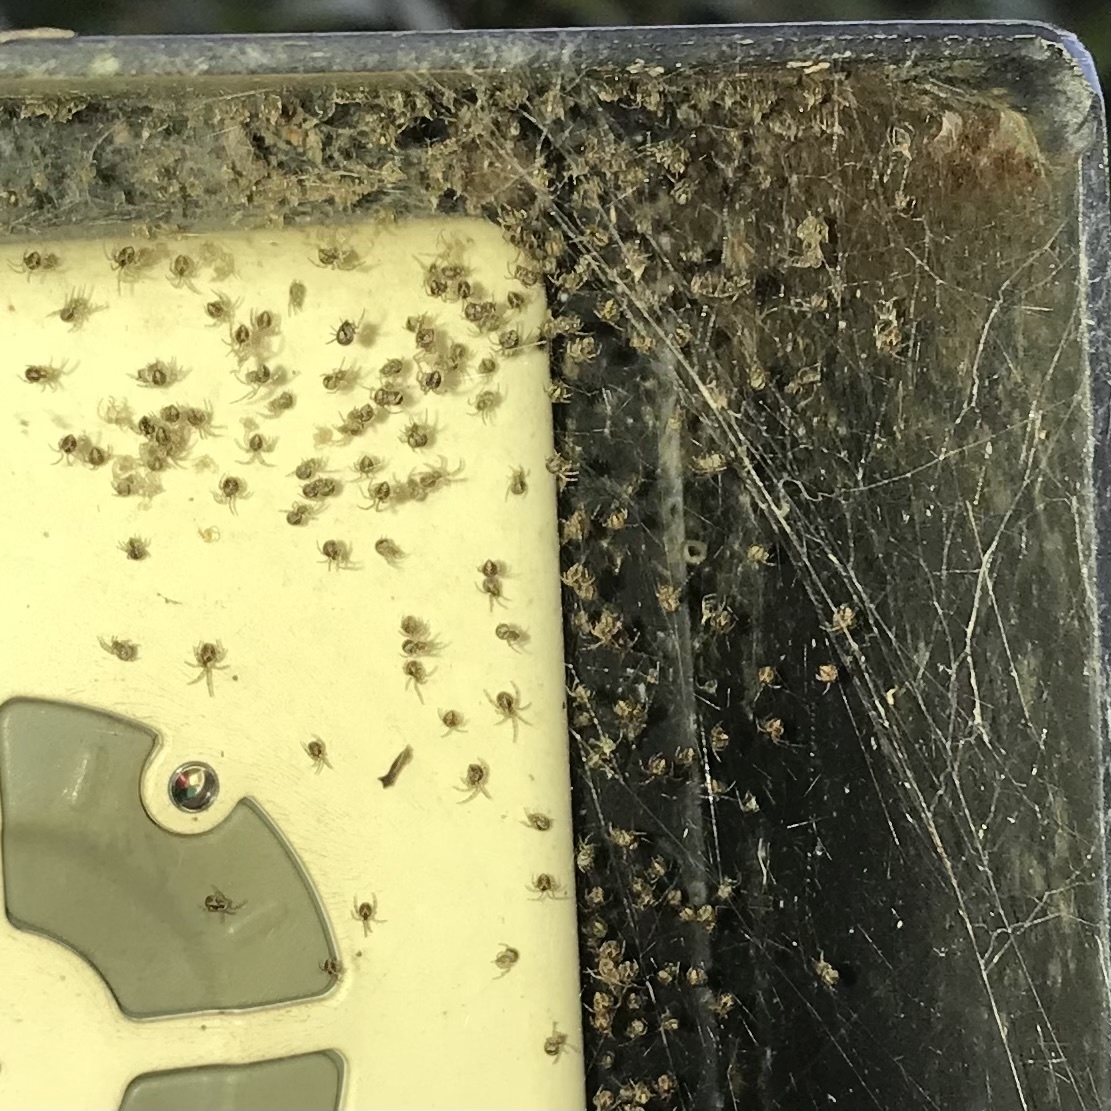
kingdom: Animalia
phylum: Arthropoda
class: Arachnida
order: Araneae
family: Theridiidae
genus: Cryptachaea
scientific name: Cryptachaea veruculata
